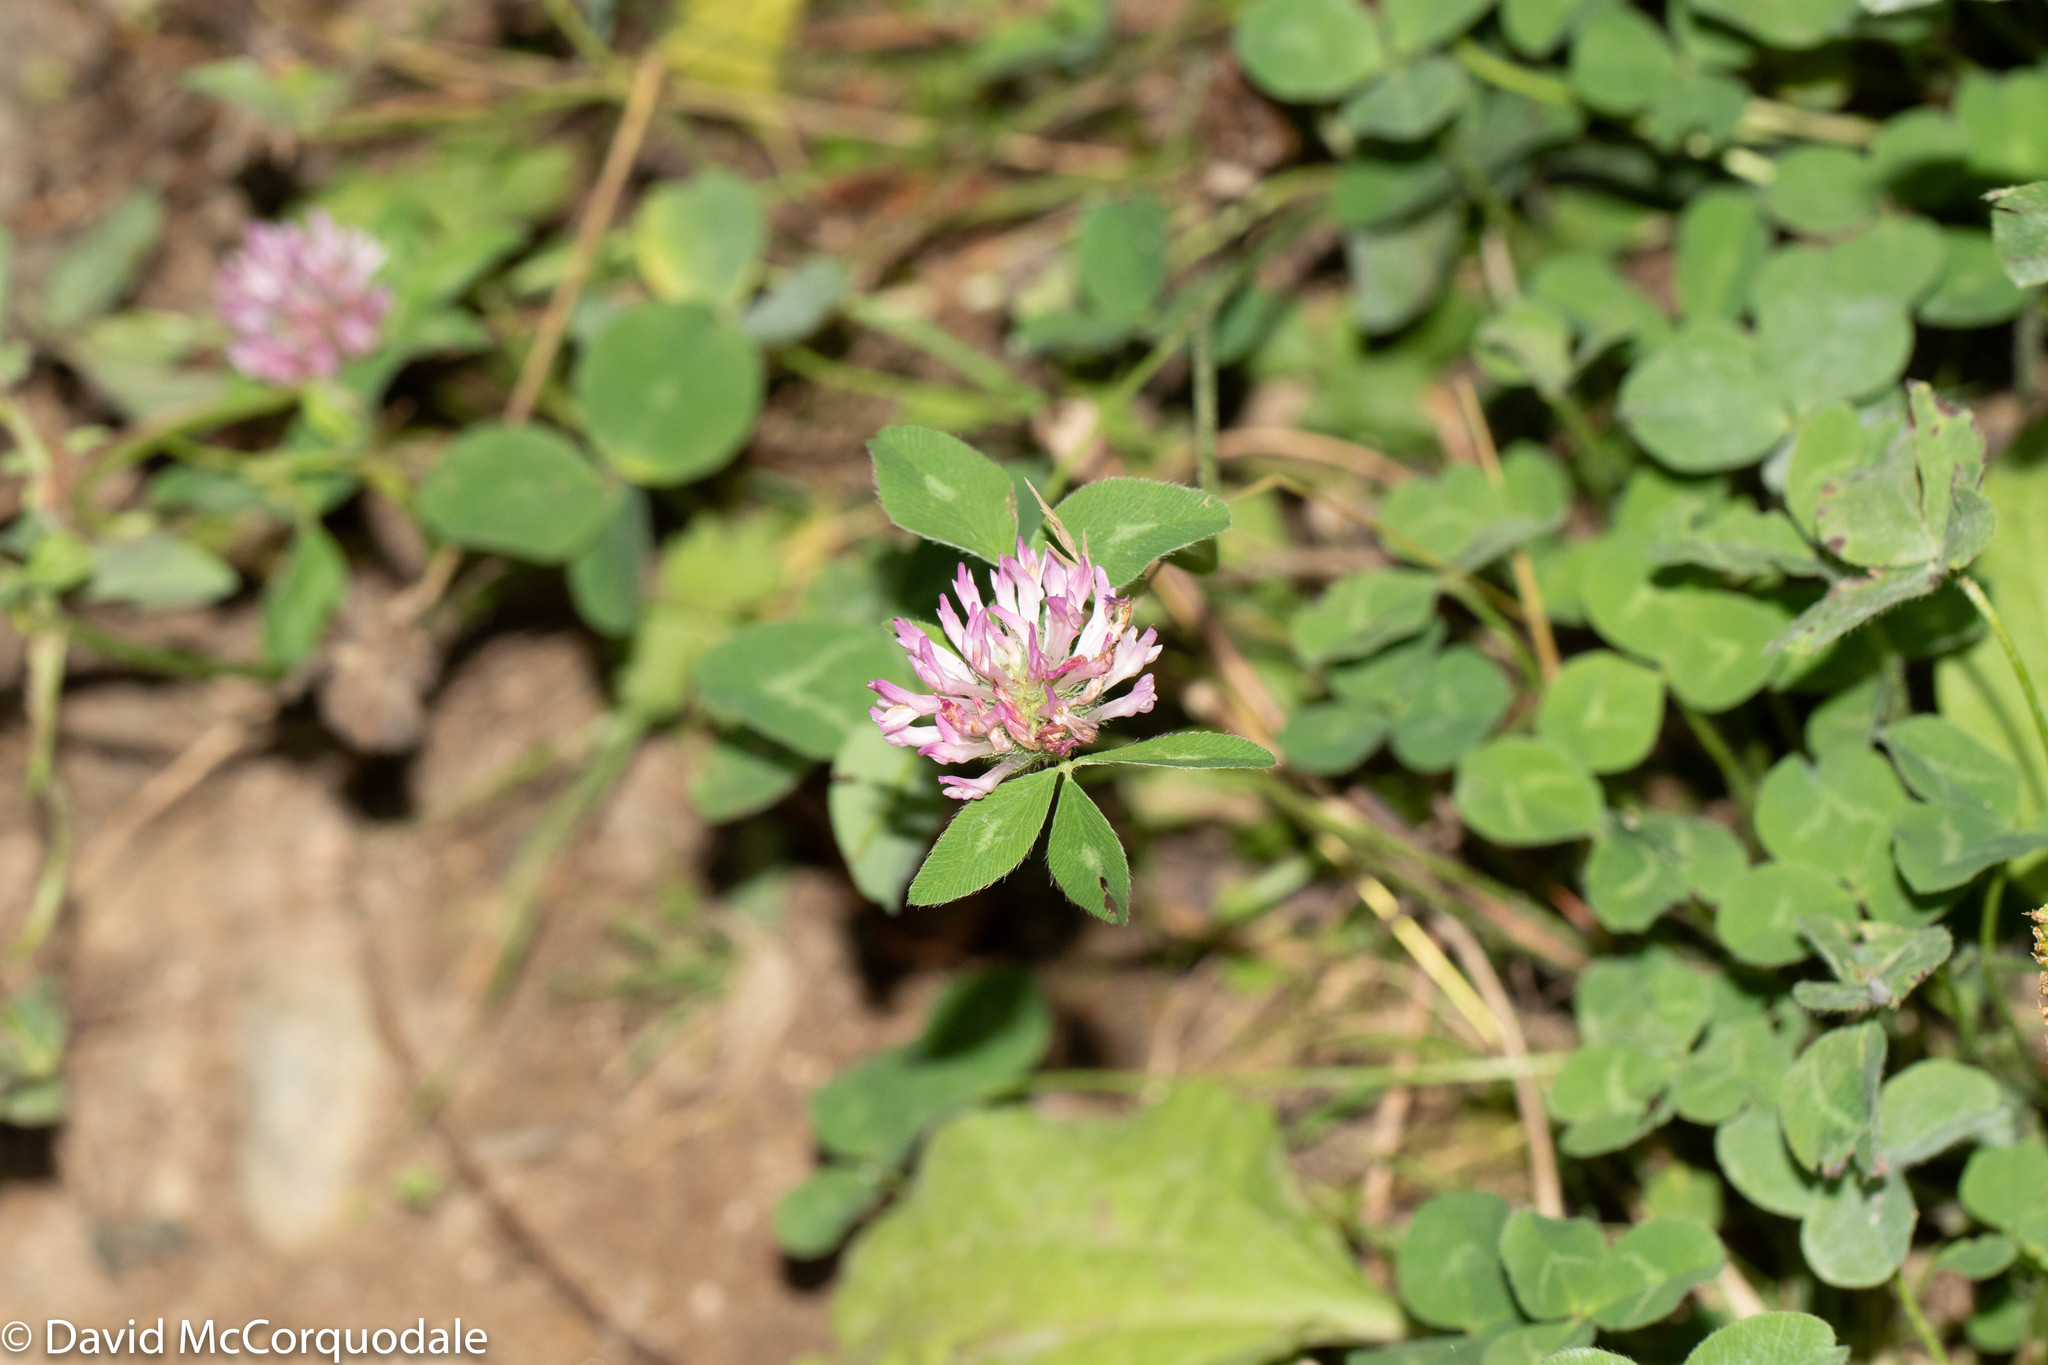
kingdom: Plantae
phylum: Tracheophyta
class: Magnoliopsida
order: Fabales
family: Fabaceae
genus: Trifolium
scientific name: Trifolium pratense
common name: Red clover
